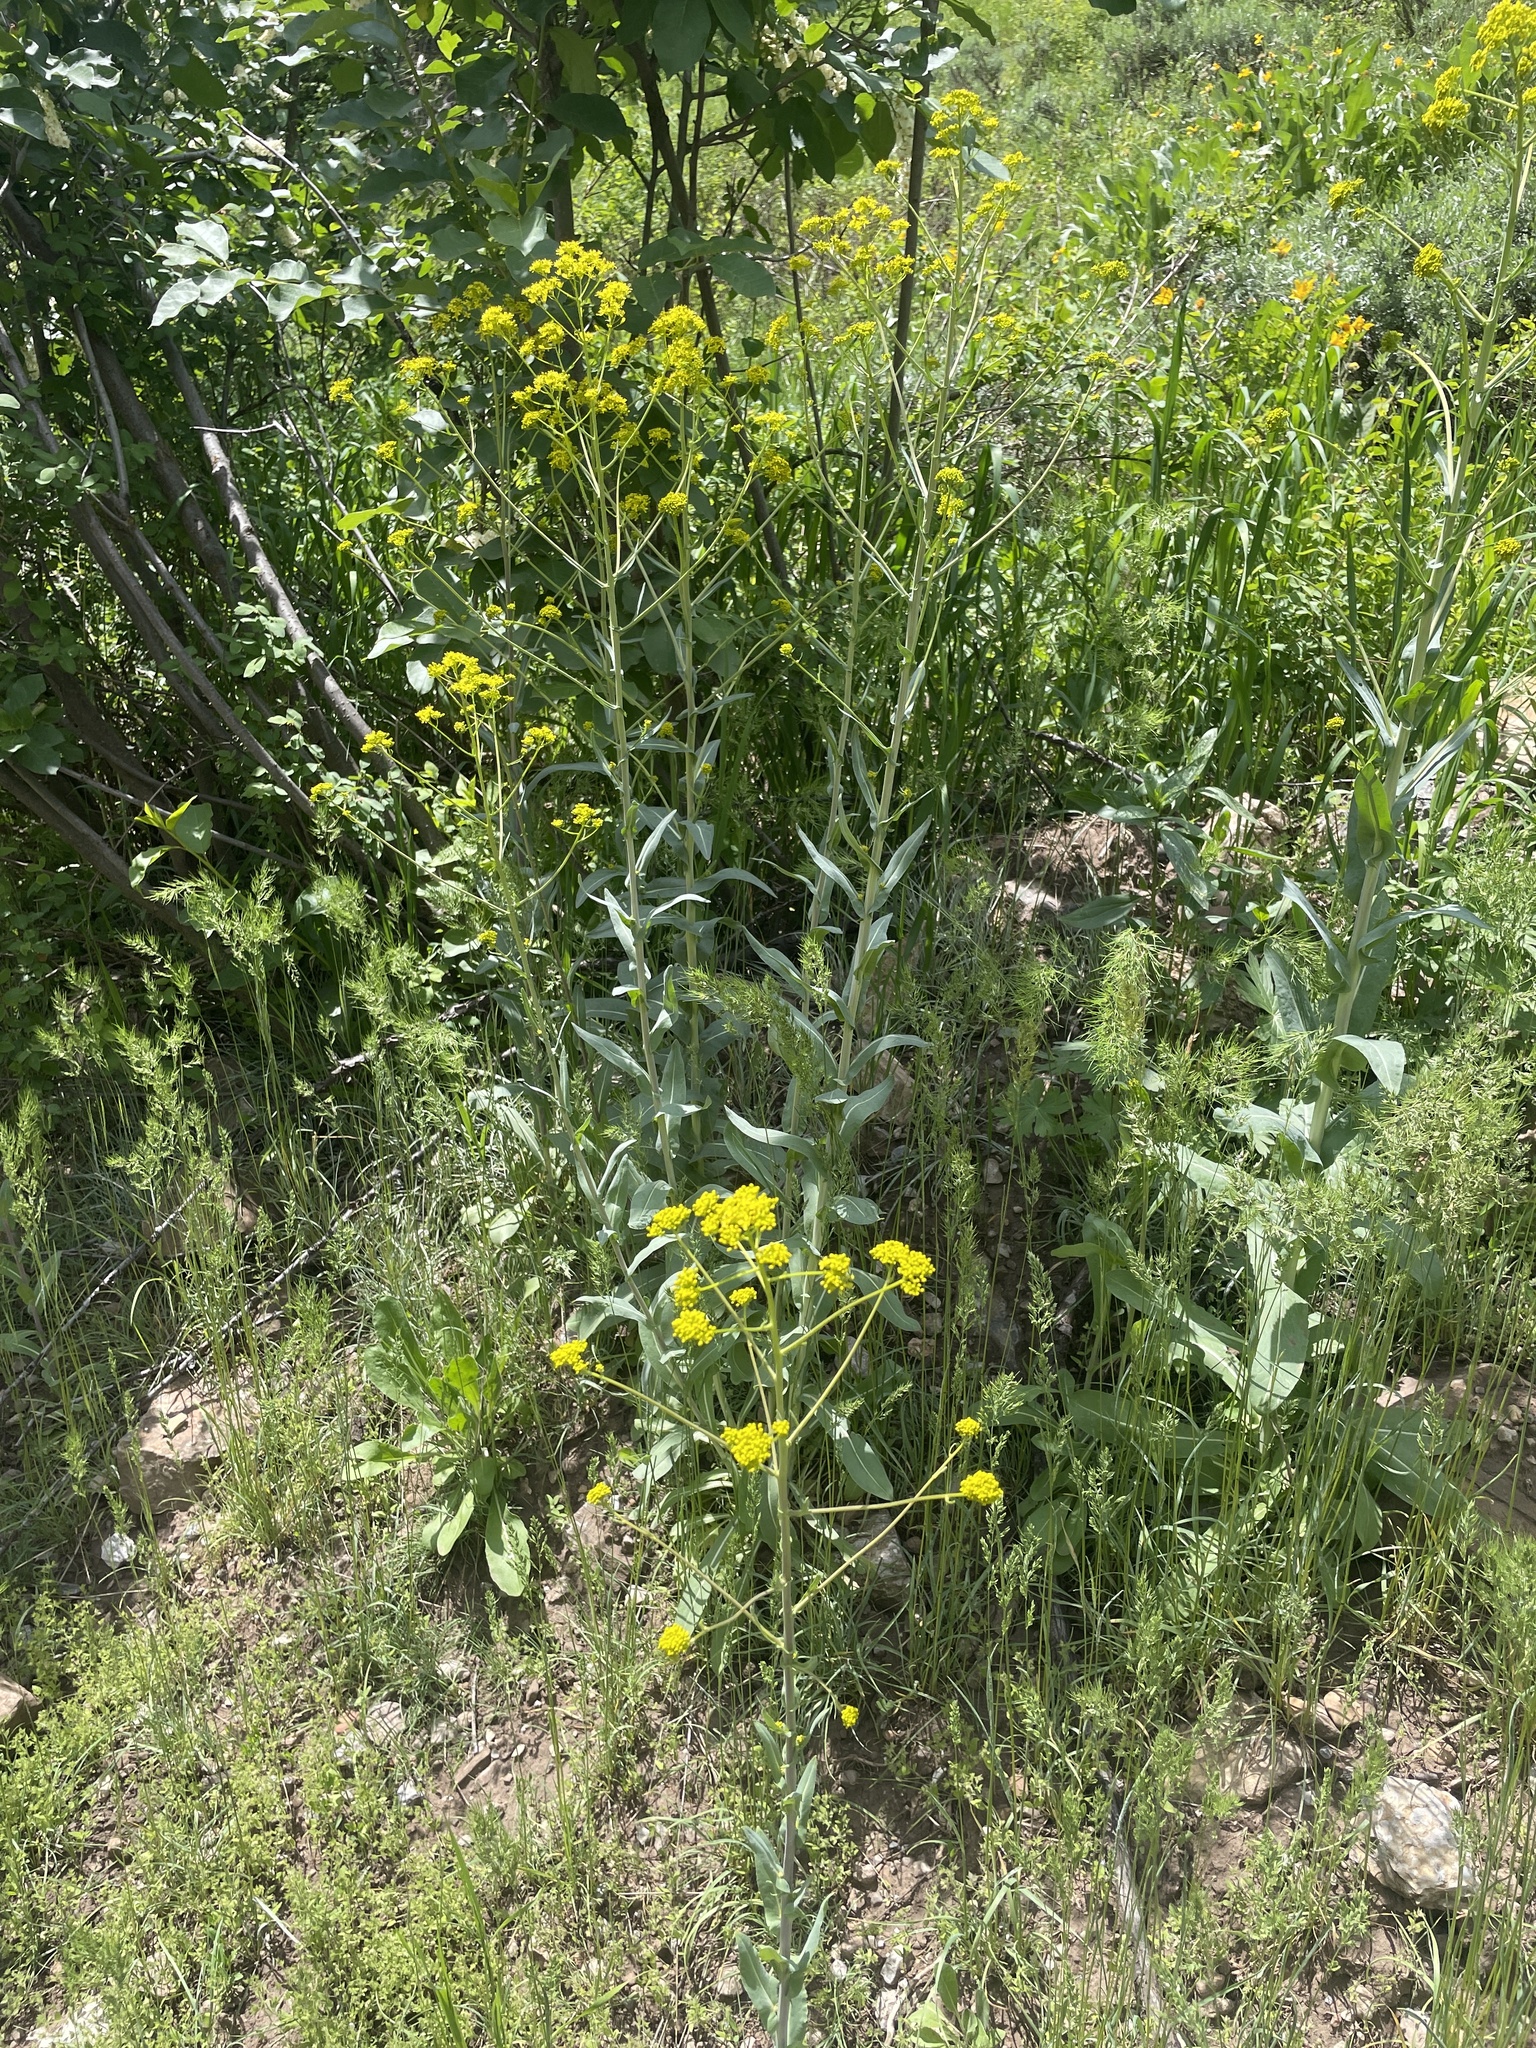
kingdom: Plantae
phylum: Tracheophyta
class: Magnoliopsida
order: Brassicales
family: Brassicaceae
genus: Isatis
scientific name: Isatis tinctoria
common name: Woad
